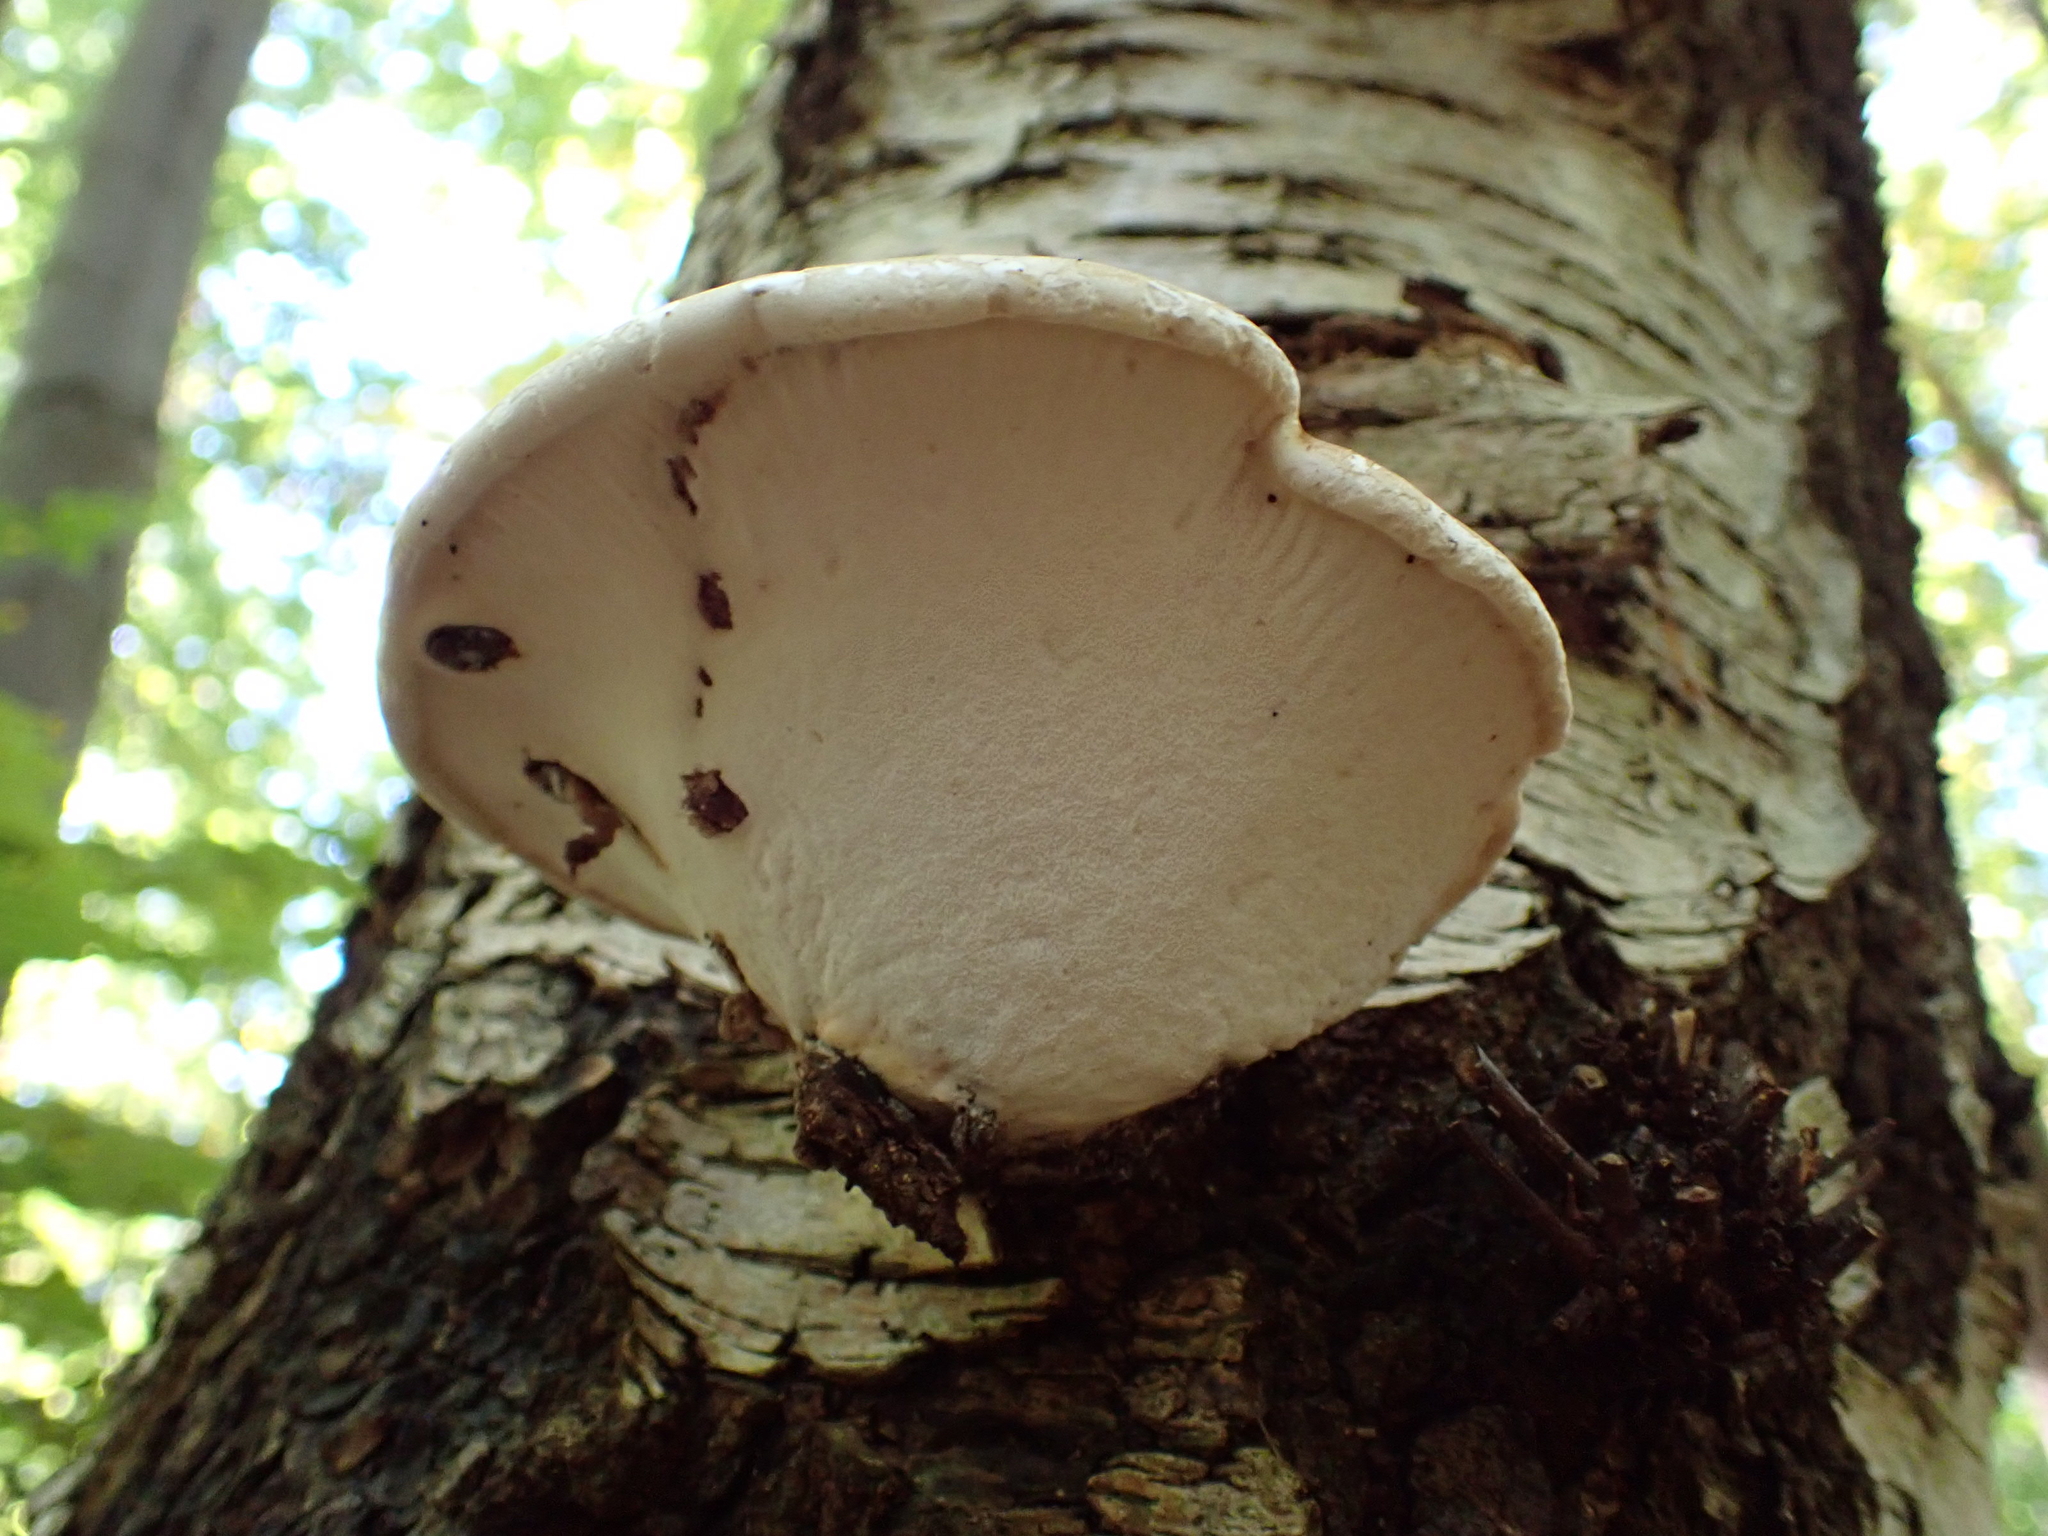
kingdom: Fungi
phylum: Basidiomycota
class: Agaricomycetes
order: Polyporales
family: Fomitopsidaceae
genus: Fomitopsis
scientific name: Fomitopsis betulina
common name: Birch polypore
